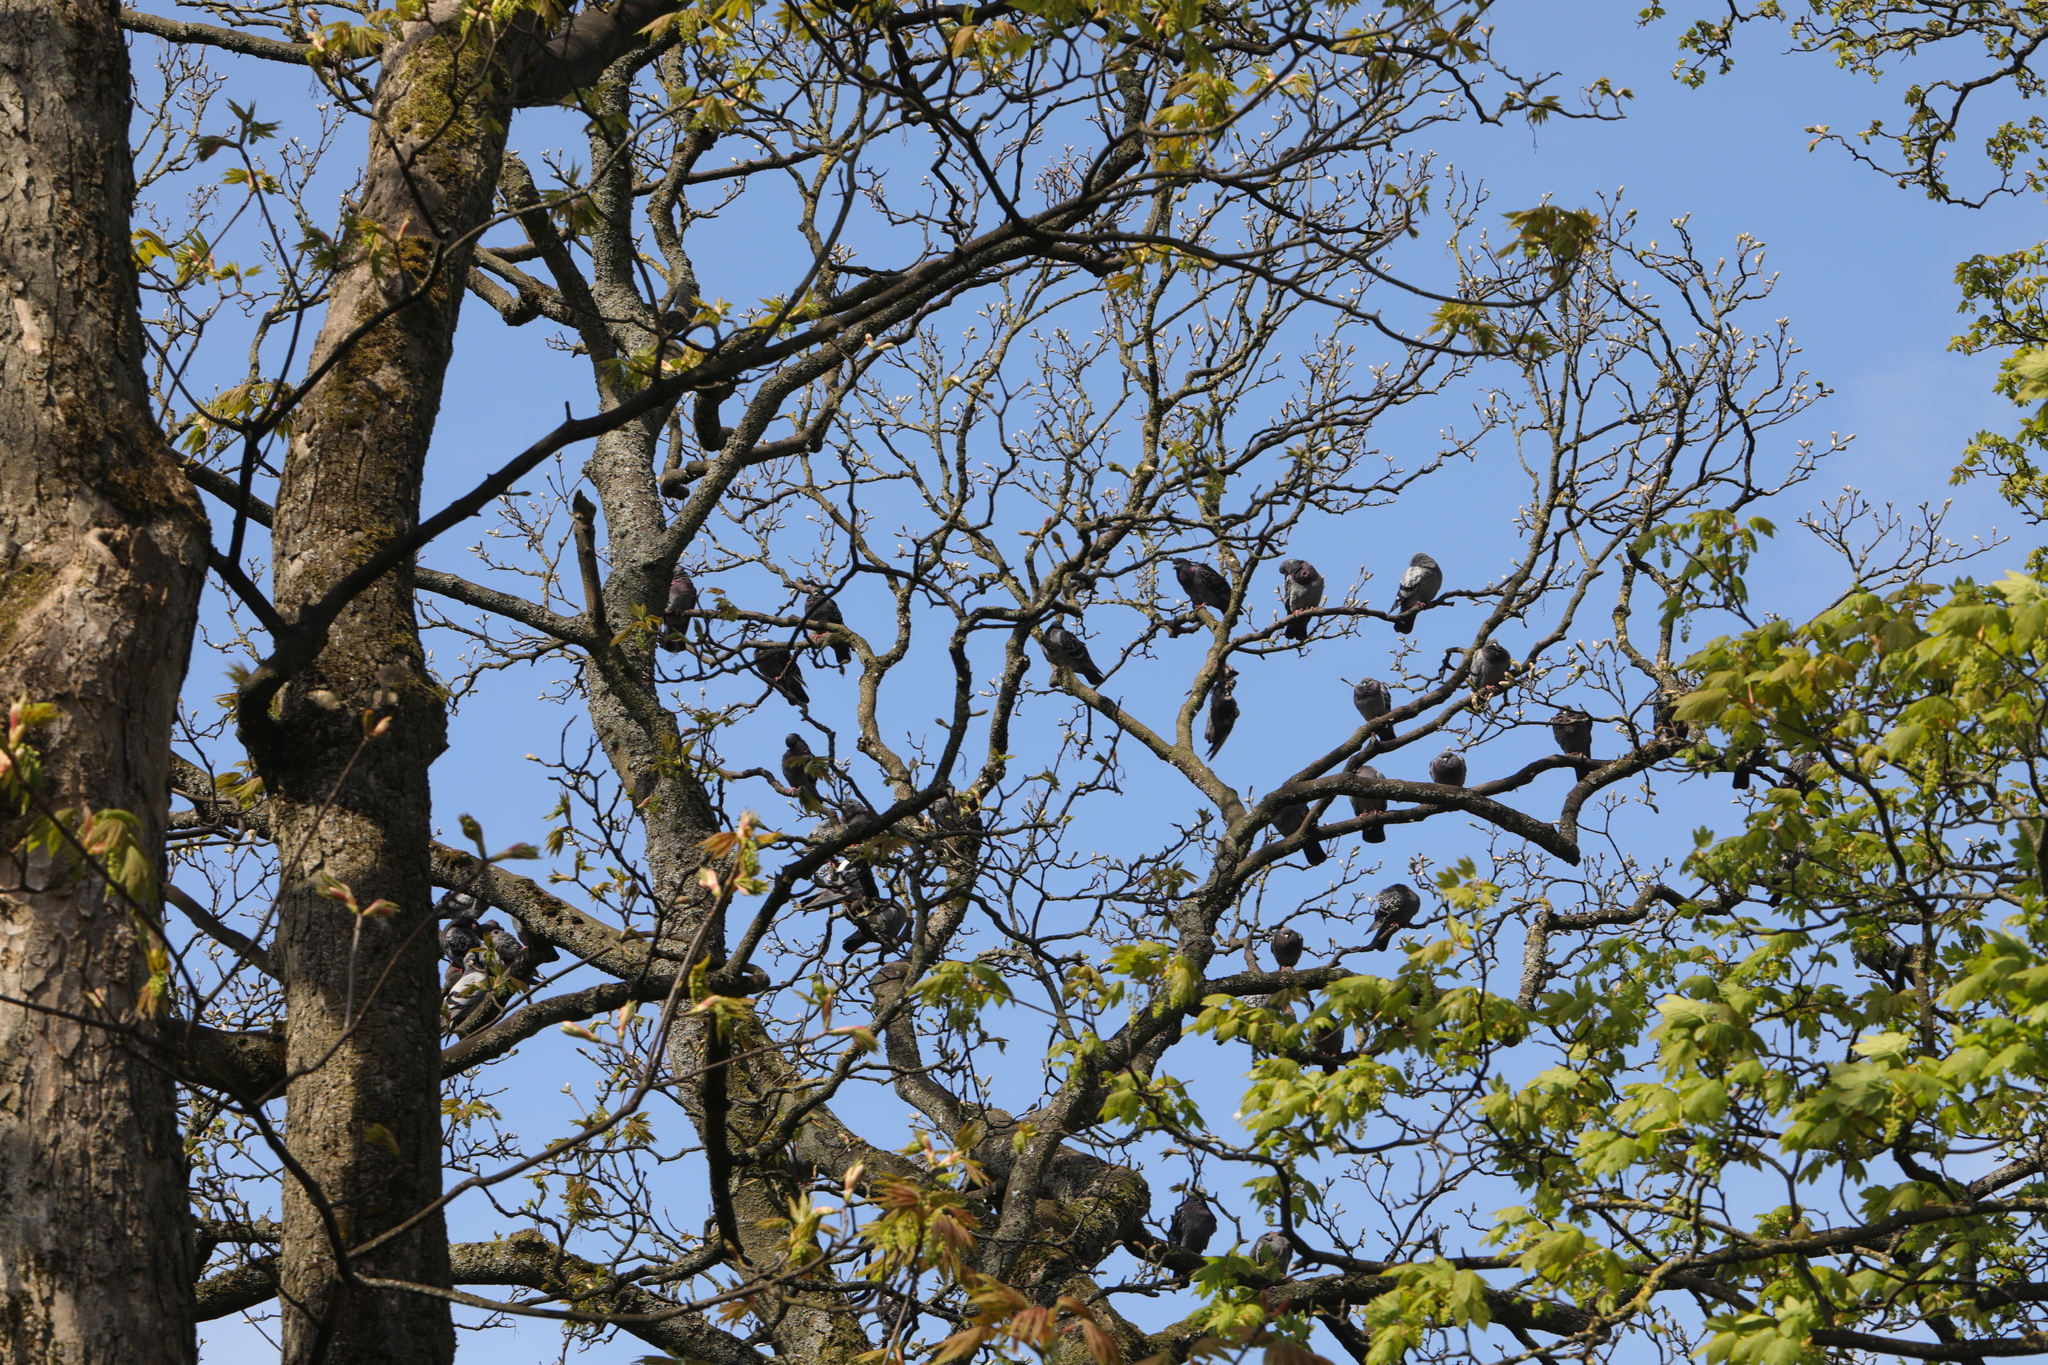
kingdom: Animalia
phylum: Chordata
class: Aves
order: Columbiformes
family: Columbidae
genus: Columba
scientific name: Columba livia
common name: Rock pigeon
